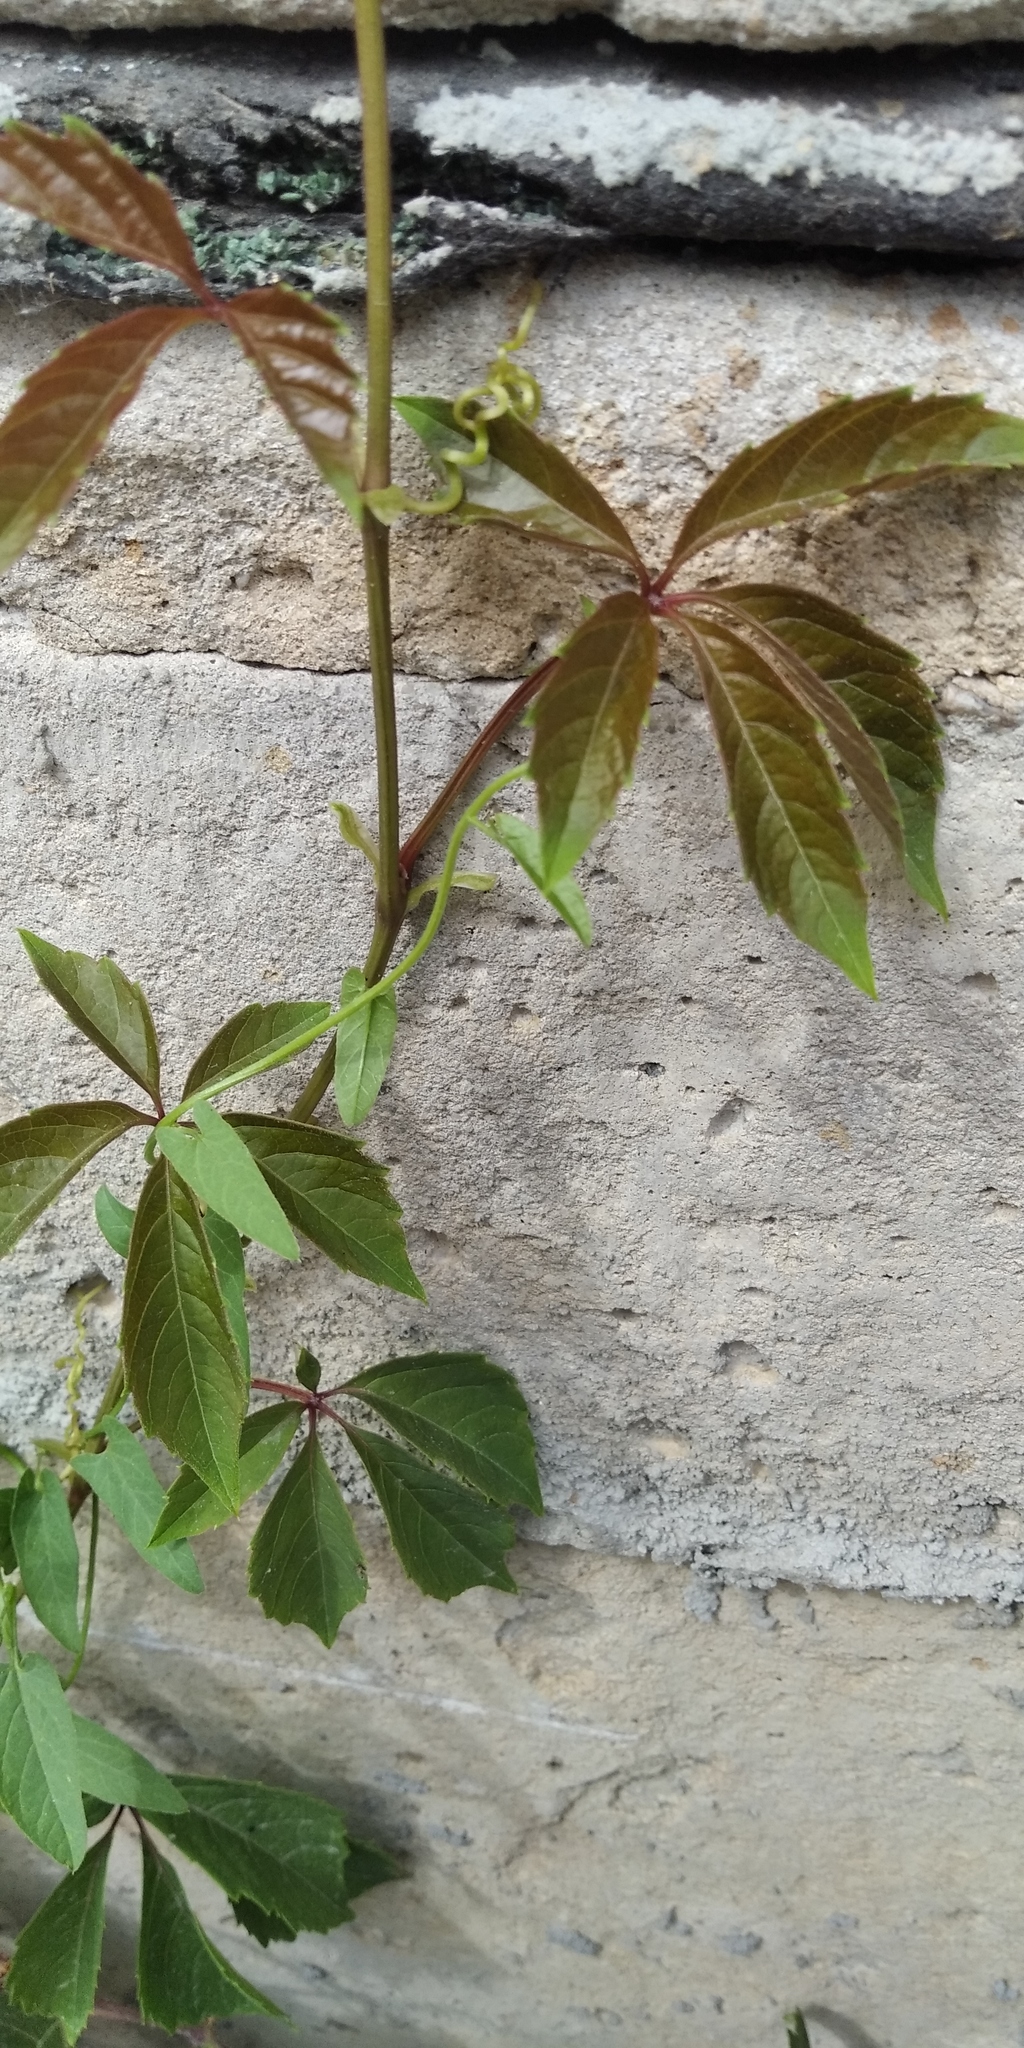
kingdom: Plantae
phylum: Tracheophyta
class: Magnoliopsida
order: Vitales
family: Vitaceae
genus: Parthenocissus
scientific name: Parthenocissus inserta
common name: False virginia-creeper
